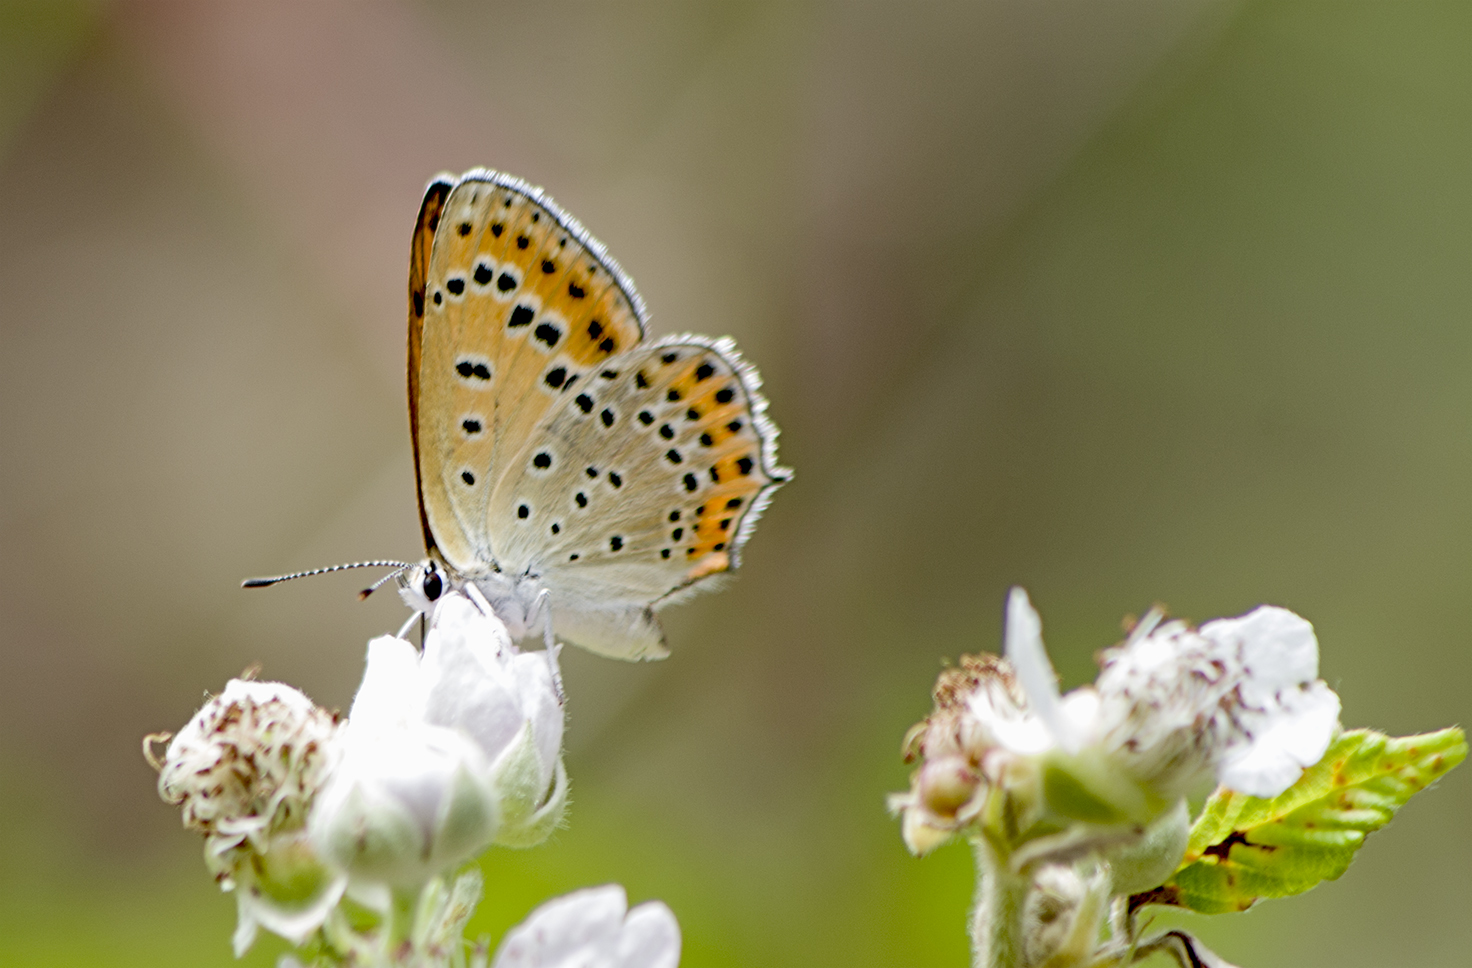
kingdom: Animalia
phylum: Arthropoda
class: Insecta
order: Lepidoptera
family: Lycaenidae
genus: Thersamonia
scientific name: Thersamonia thersamon
